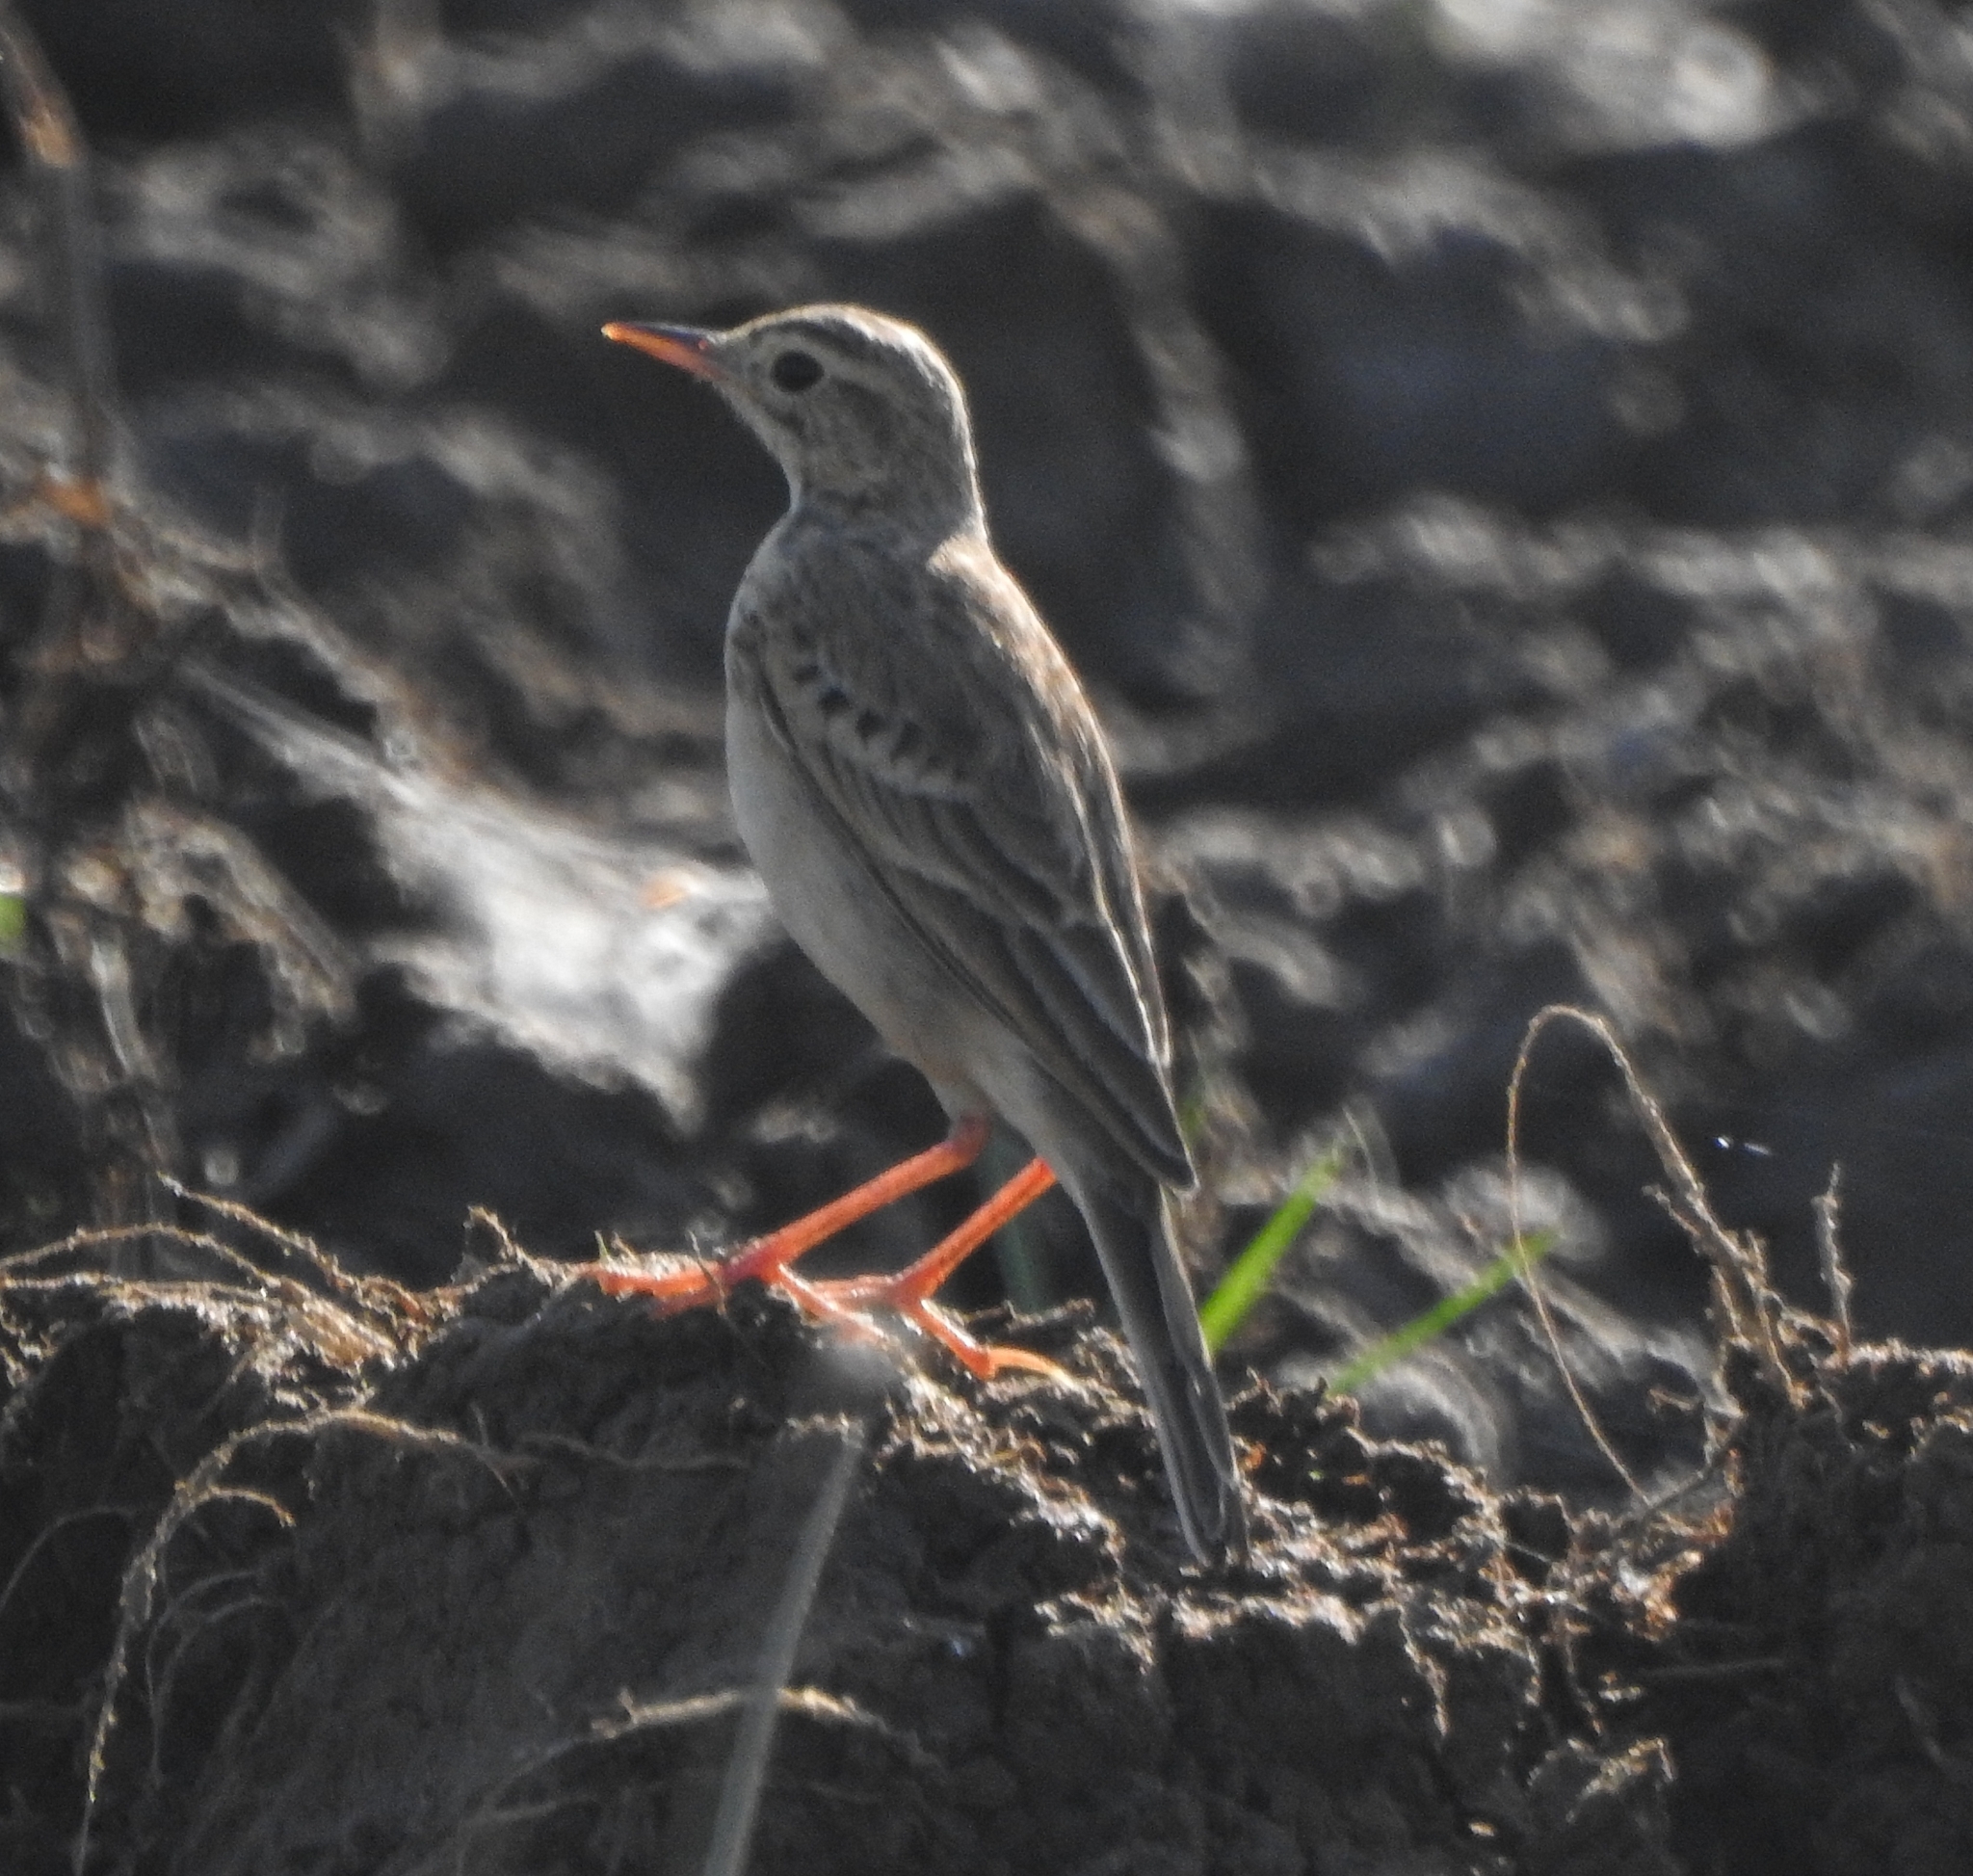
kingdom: Animalia
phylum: Chordata
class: Aves
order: Passeriformes
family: Motacillidae
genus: Anthus
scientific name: Anthus rufulus
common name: Paddyfield pipit
